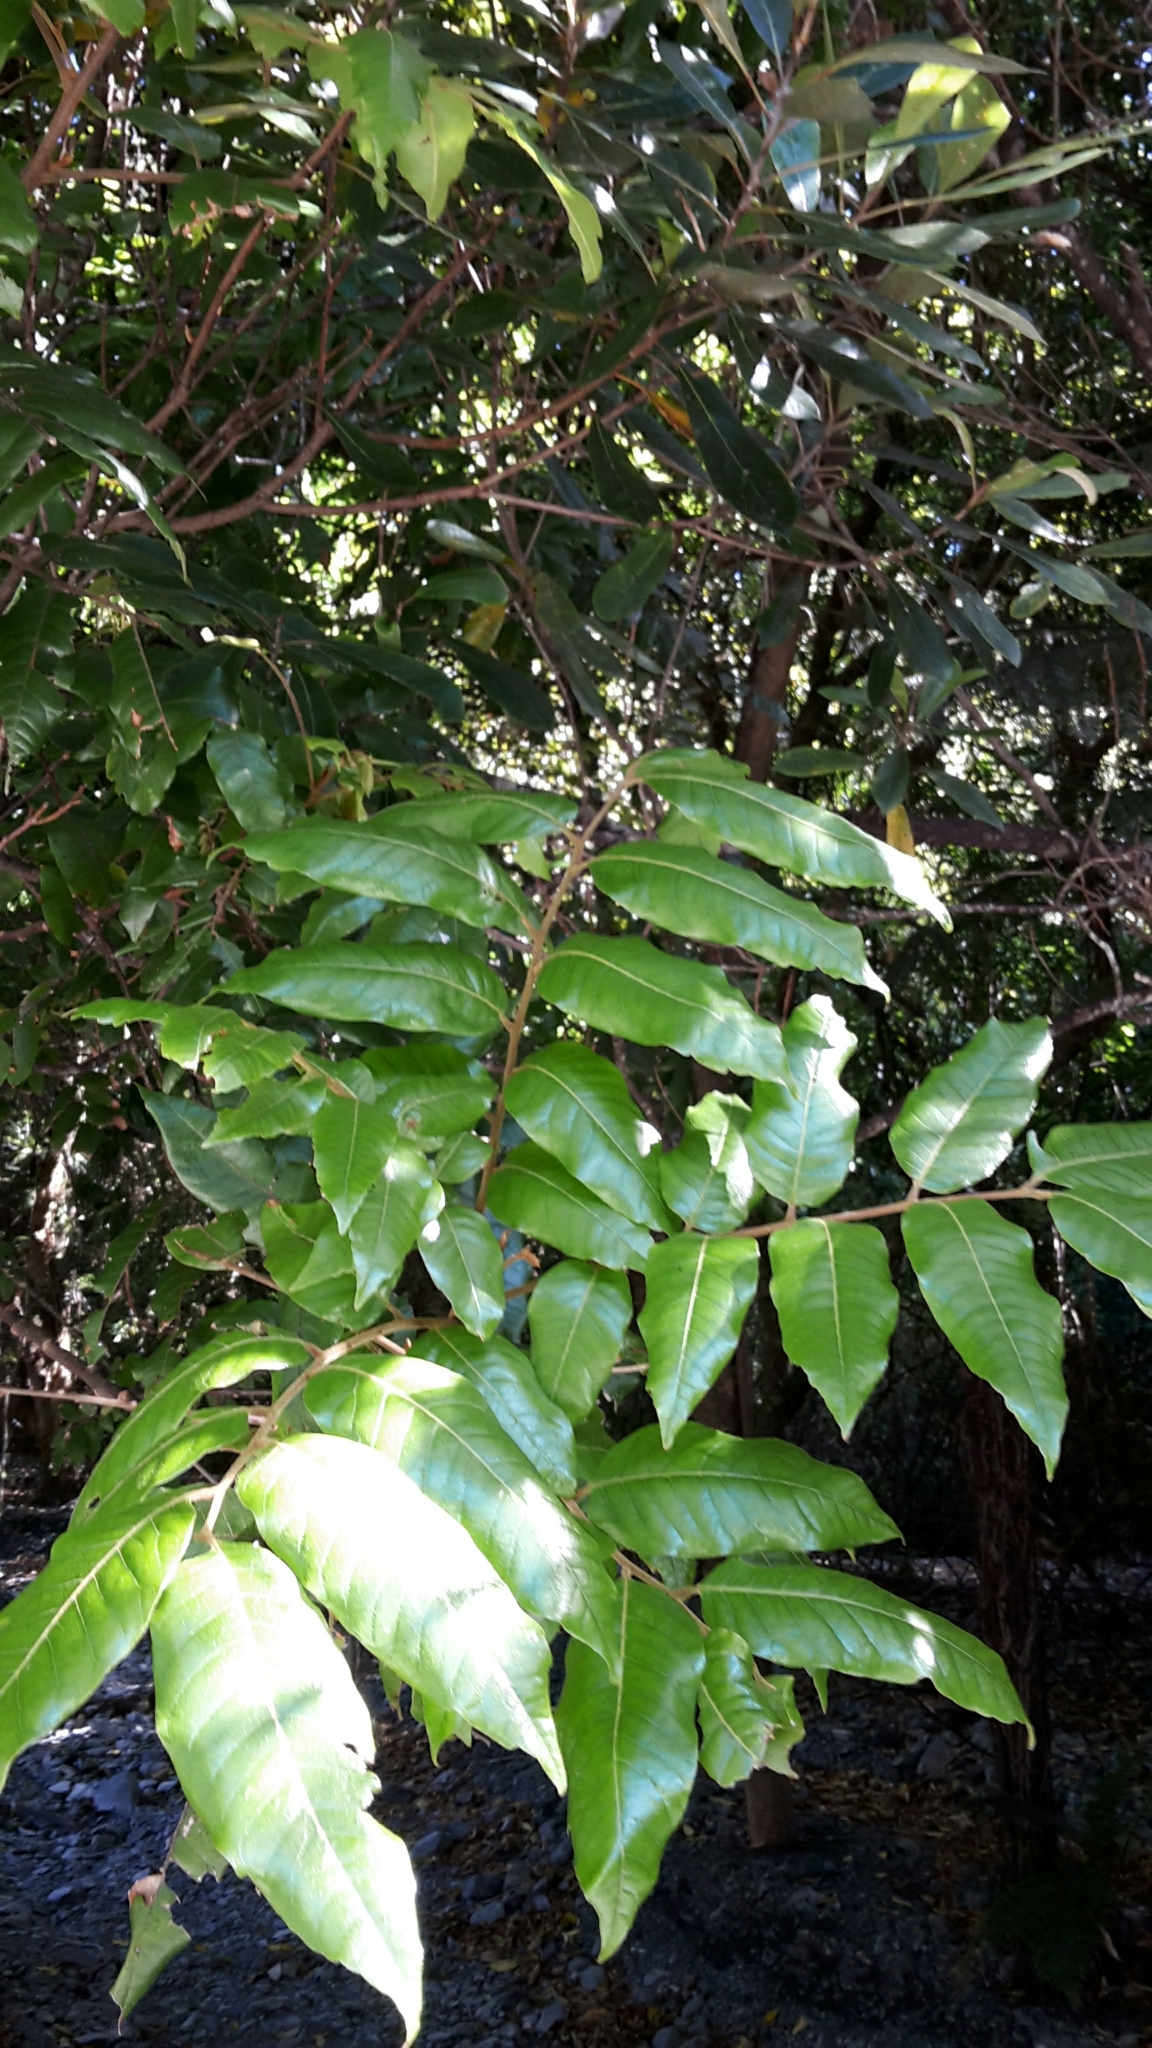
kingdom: Plantae
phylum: Tracheophyta
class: Magnoliopsida
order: Sapindales
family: Sapindaceae
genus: Alectryon
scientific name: Alectryon excelsus
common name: Three kings titoki
